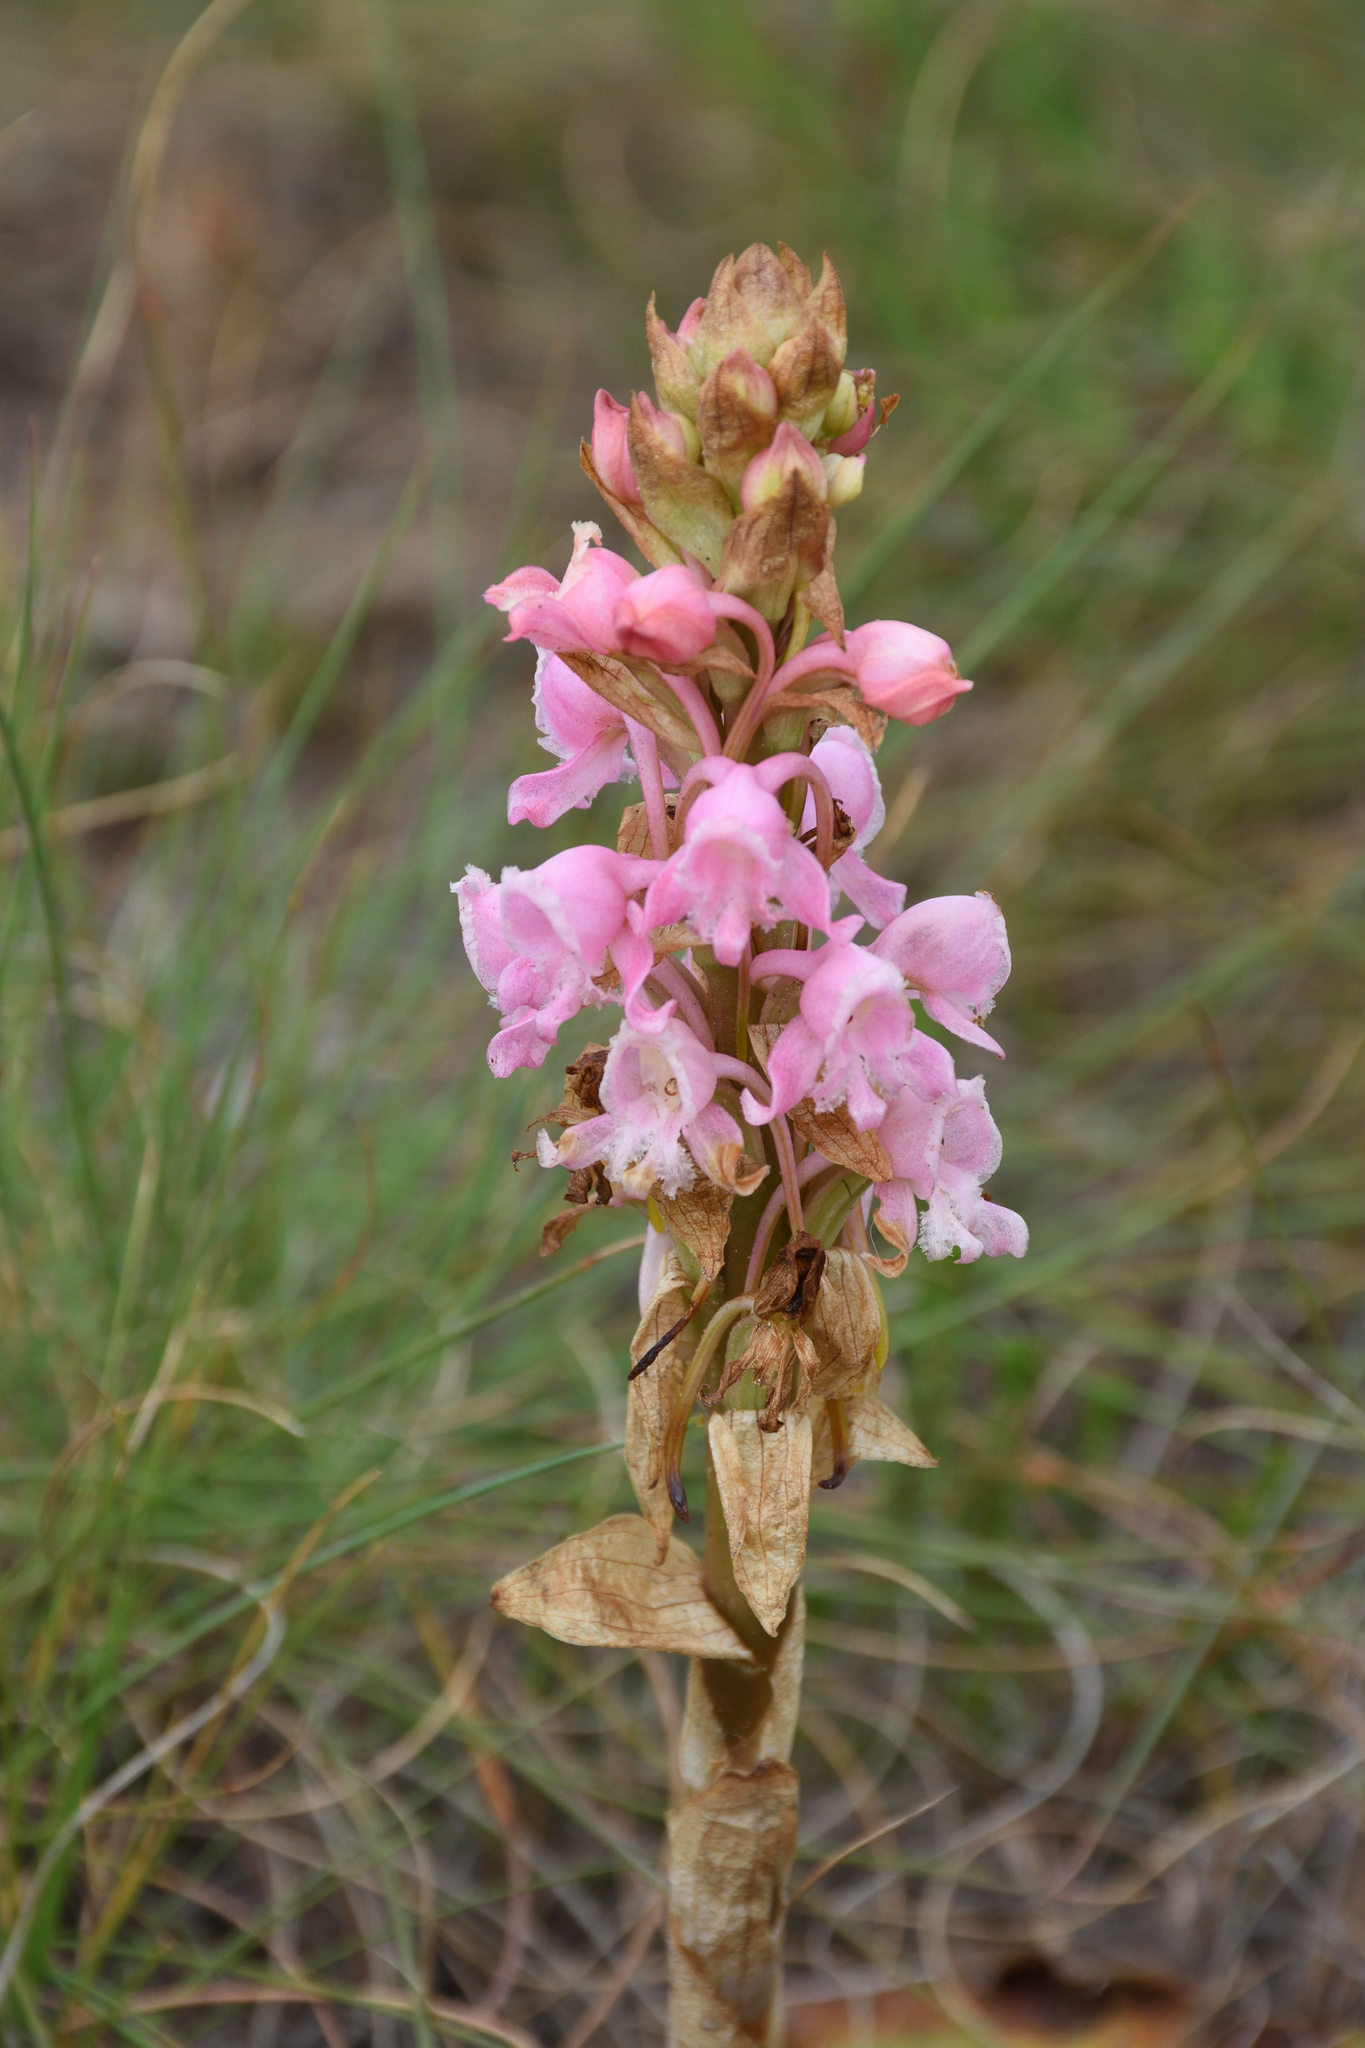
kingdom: Plantae
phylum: Tracheophyta
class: Liliopsida
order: Asparagales
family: Orchidaceae
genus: Satyrium
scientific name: Satyrium membranaceum
